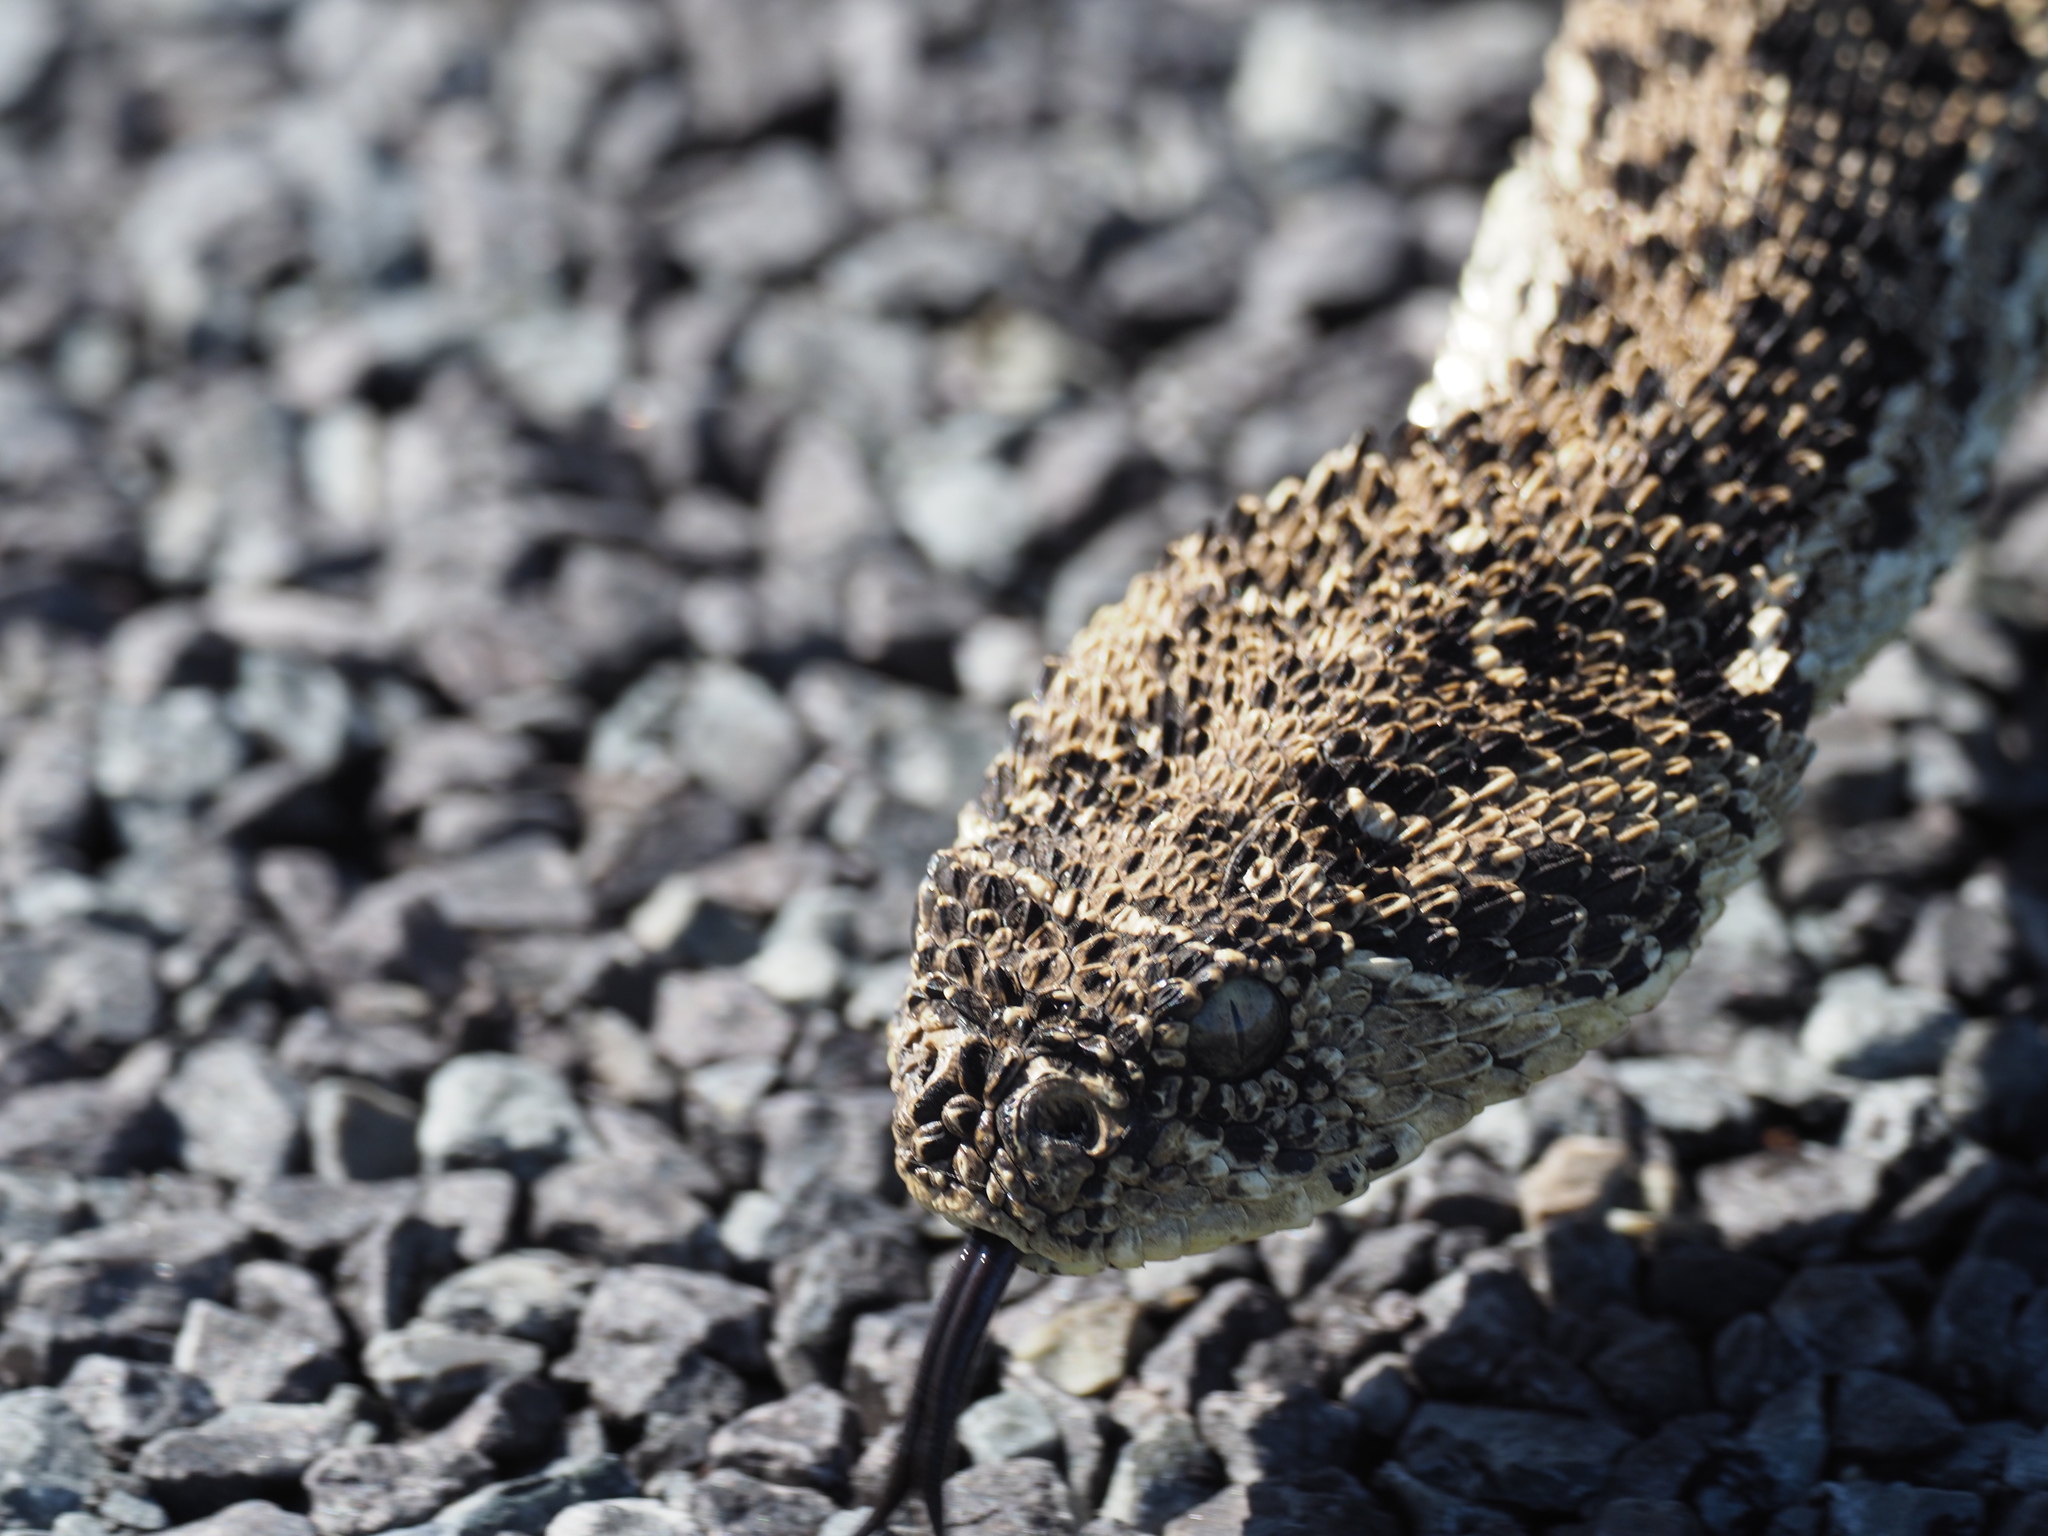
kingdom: Animalia
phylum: Chordata
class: Squamata
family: Viperidae
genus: Bitis
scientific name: Bitis arietans
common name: Puff adder
